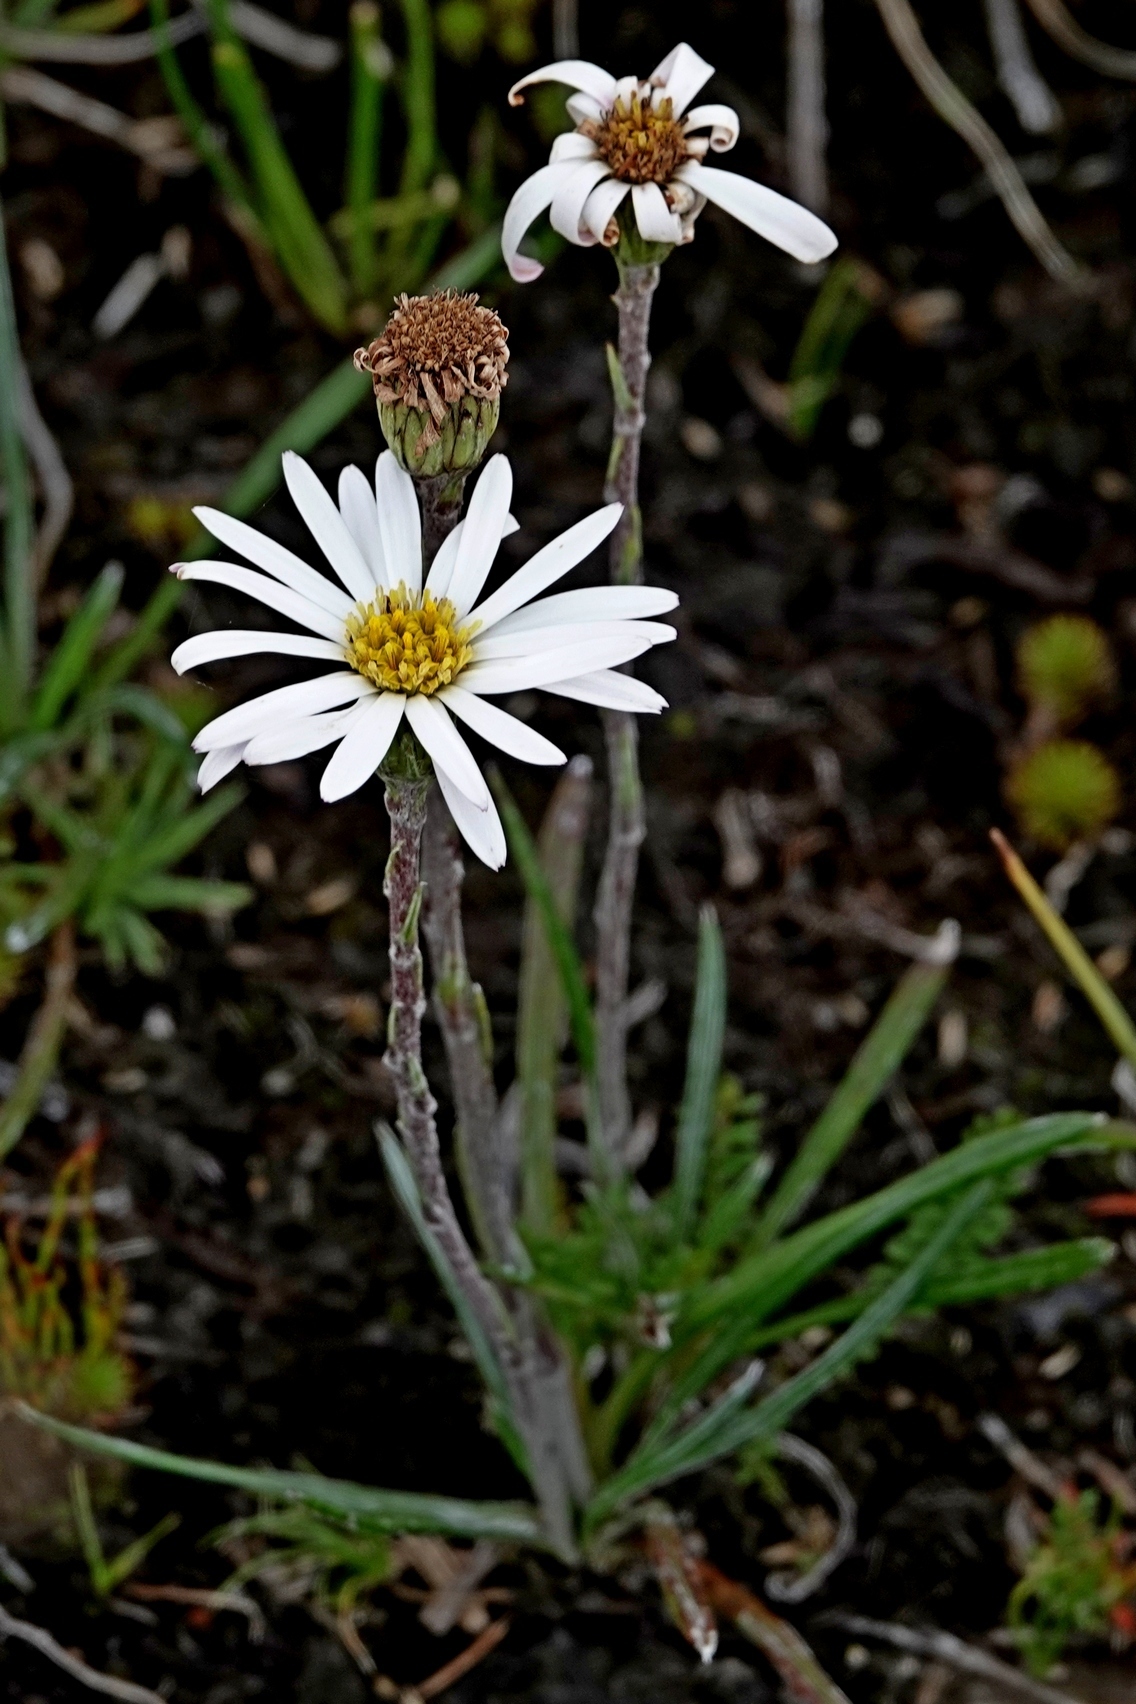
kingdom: Plantae
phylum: Tracheophyta
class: Magnoliopsida
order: Asterales
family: Asteraceae
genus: Celmisia
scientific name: Celmisia pugioniformis
